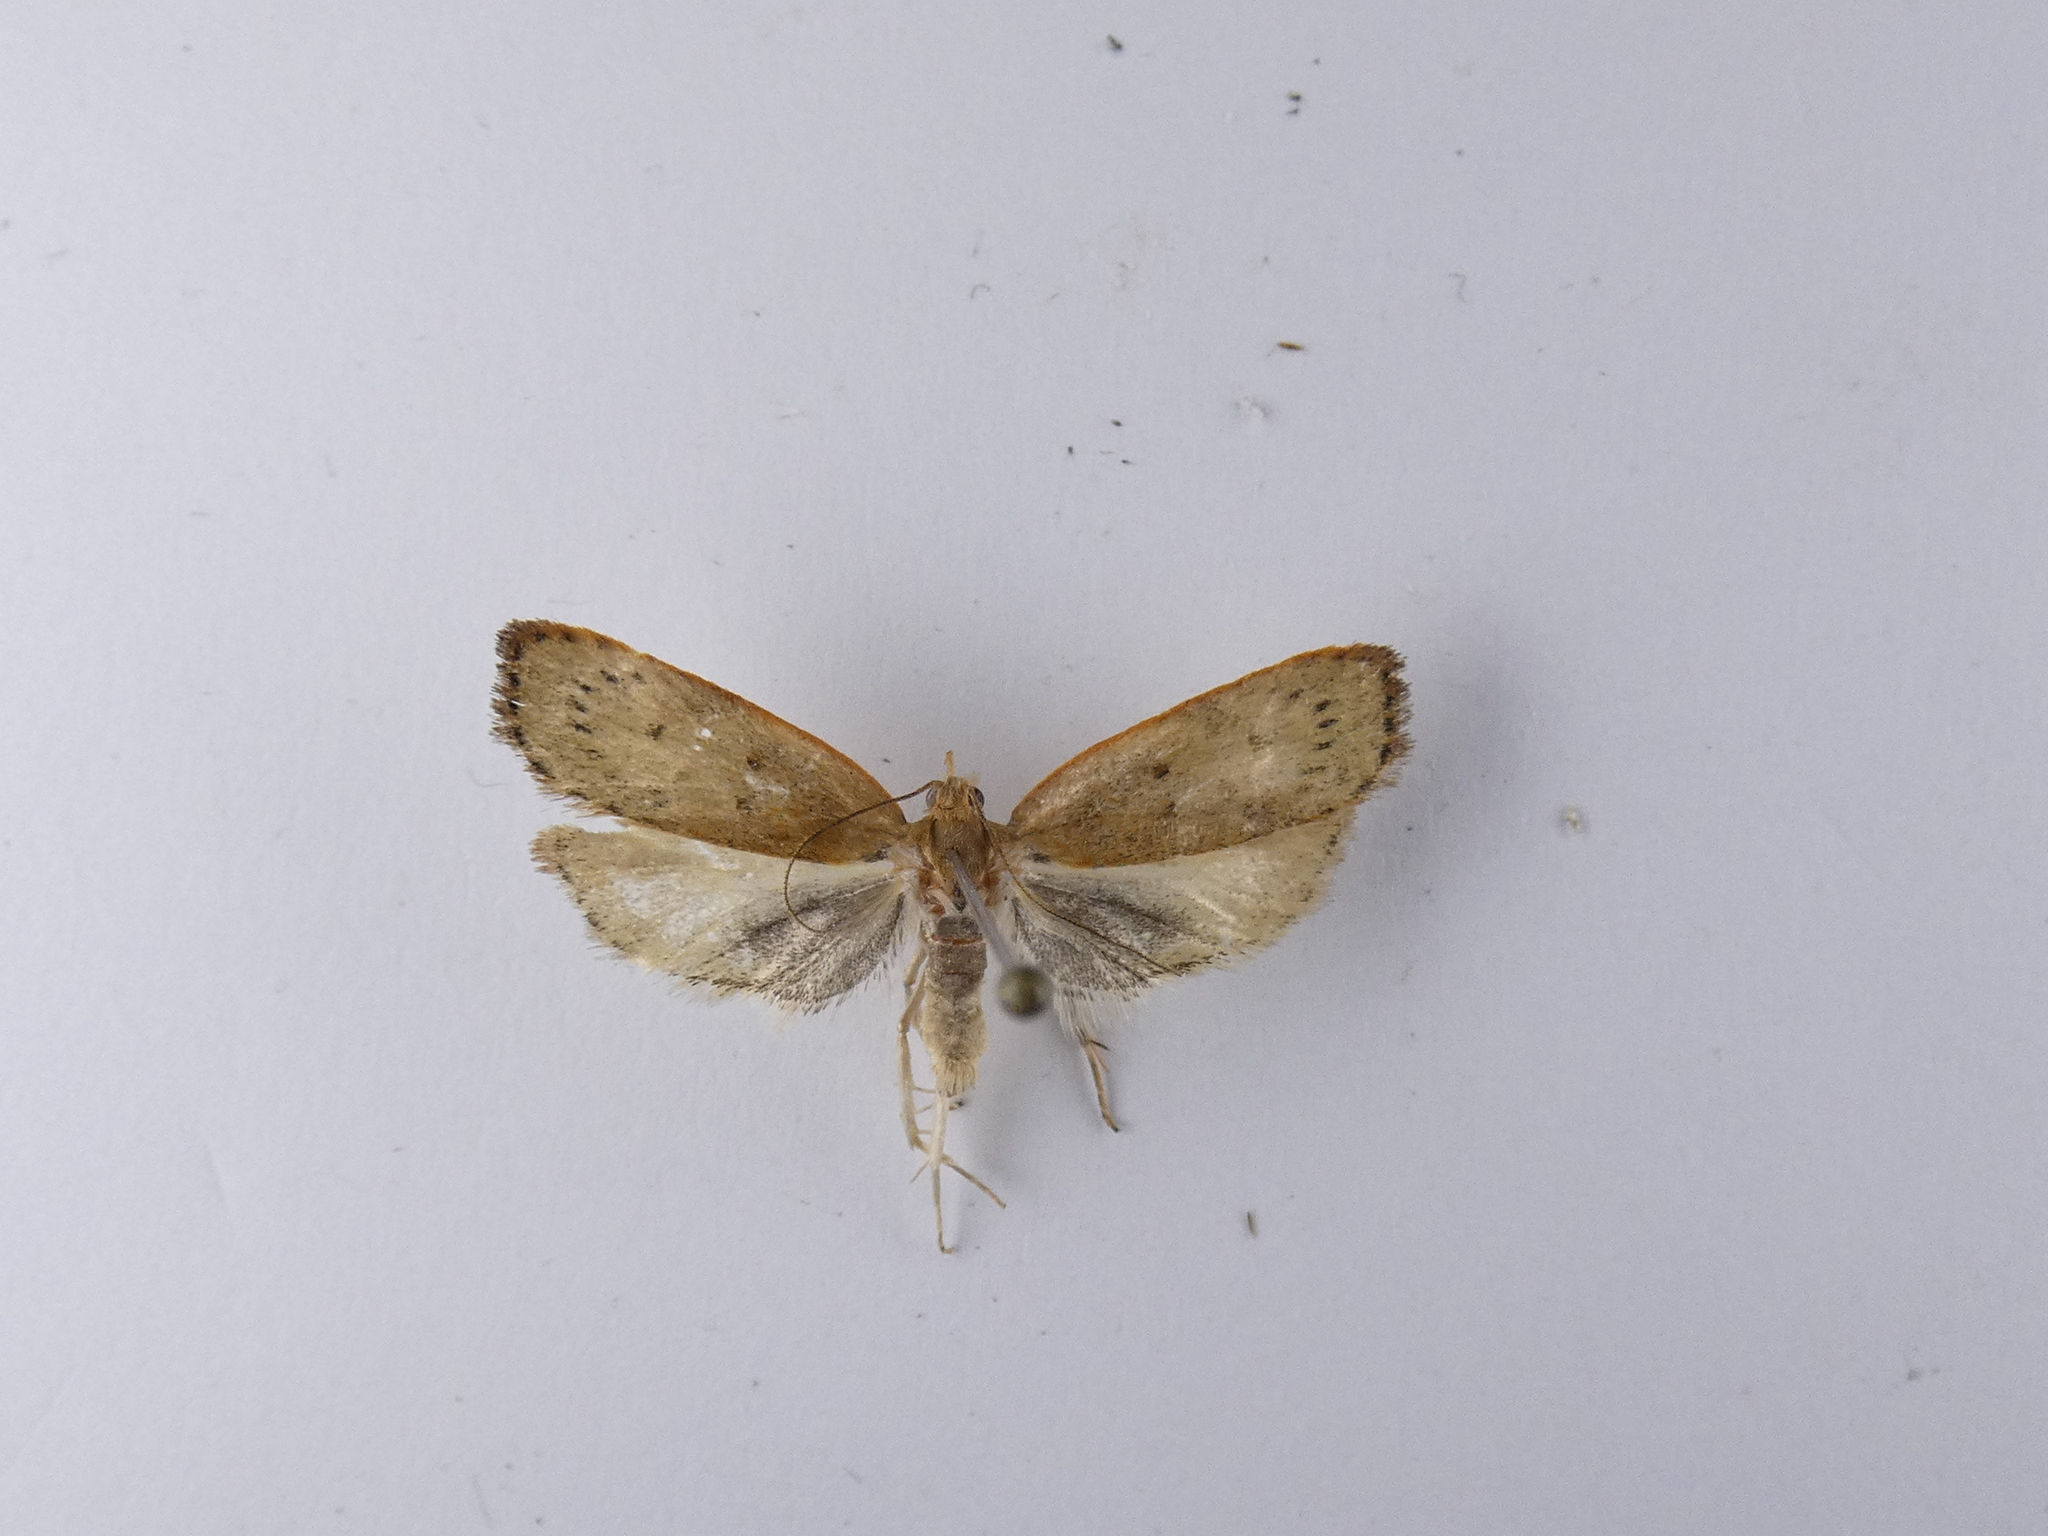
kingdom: Animalia
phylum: Arthropoda
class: Insecta
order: Lepidoptera
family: Depressariidae
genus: Phaeosaces
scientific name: Phaeosaces coarctatella
